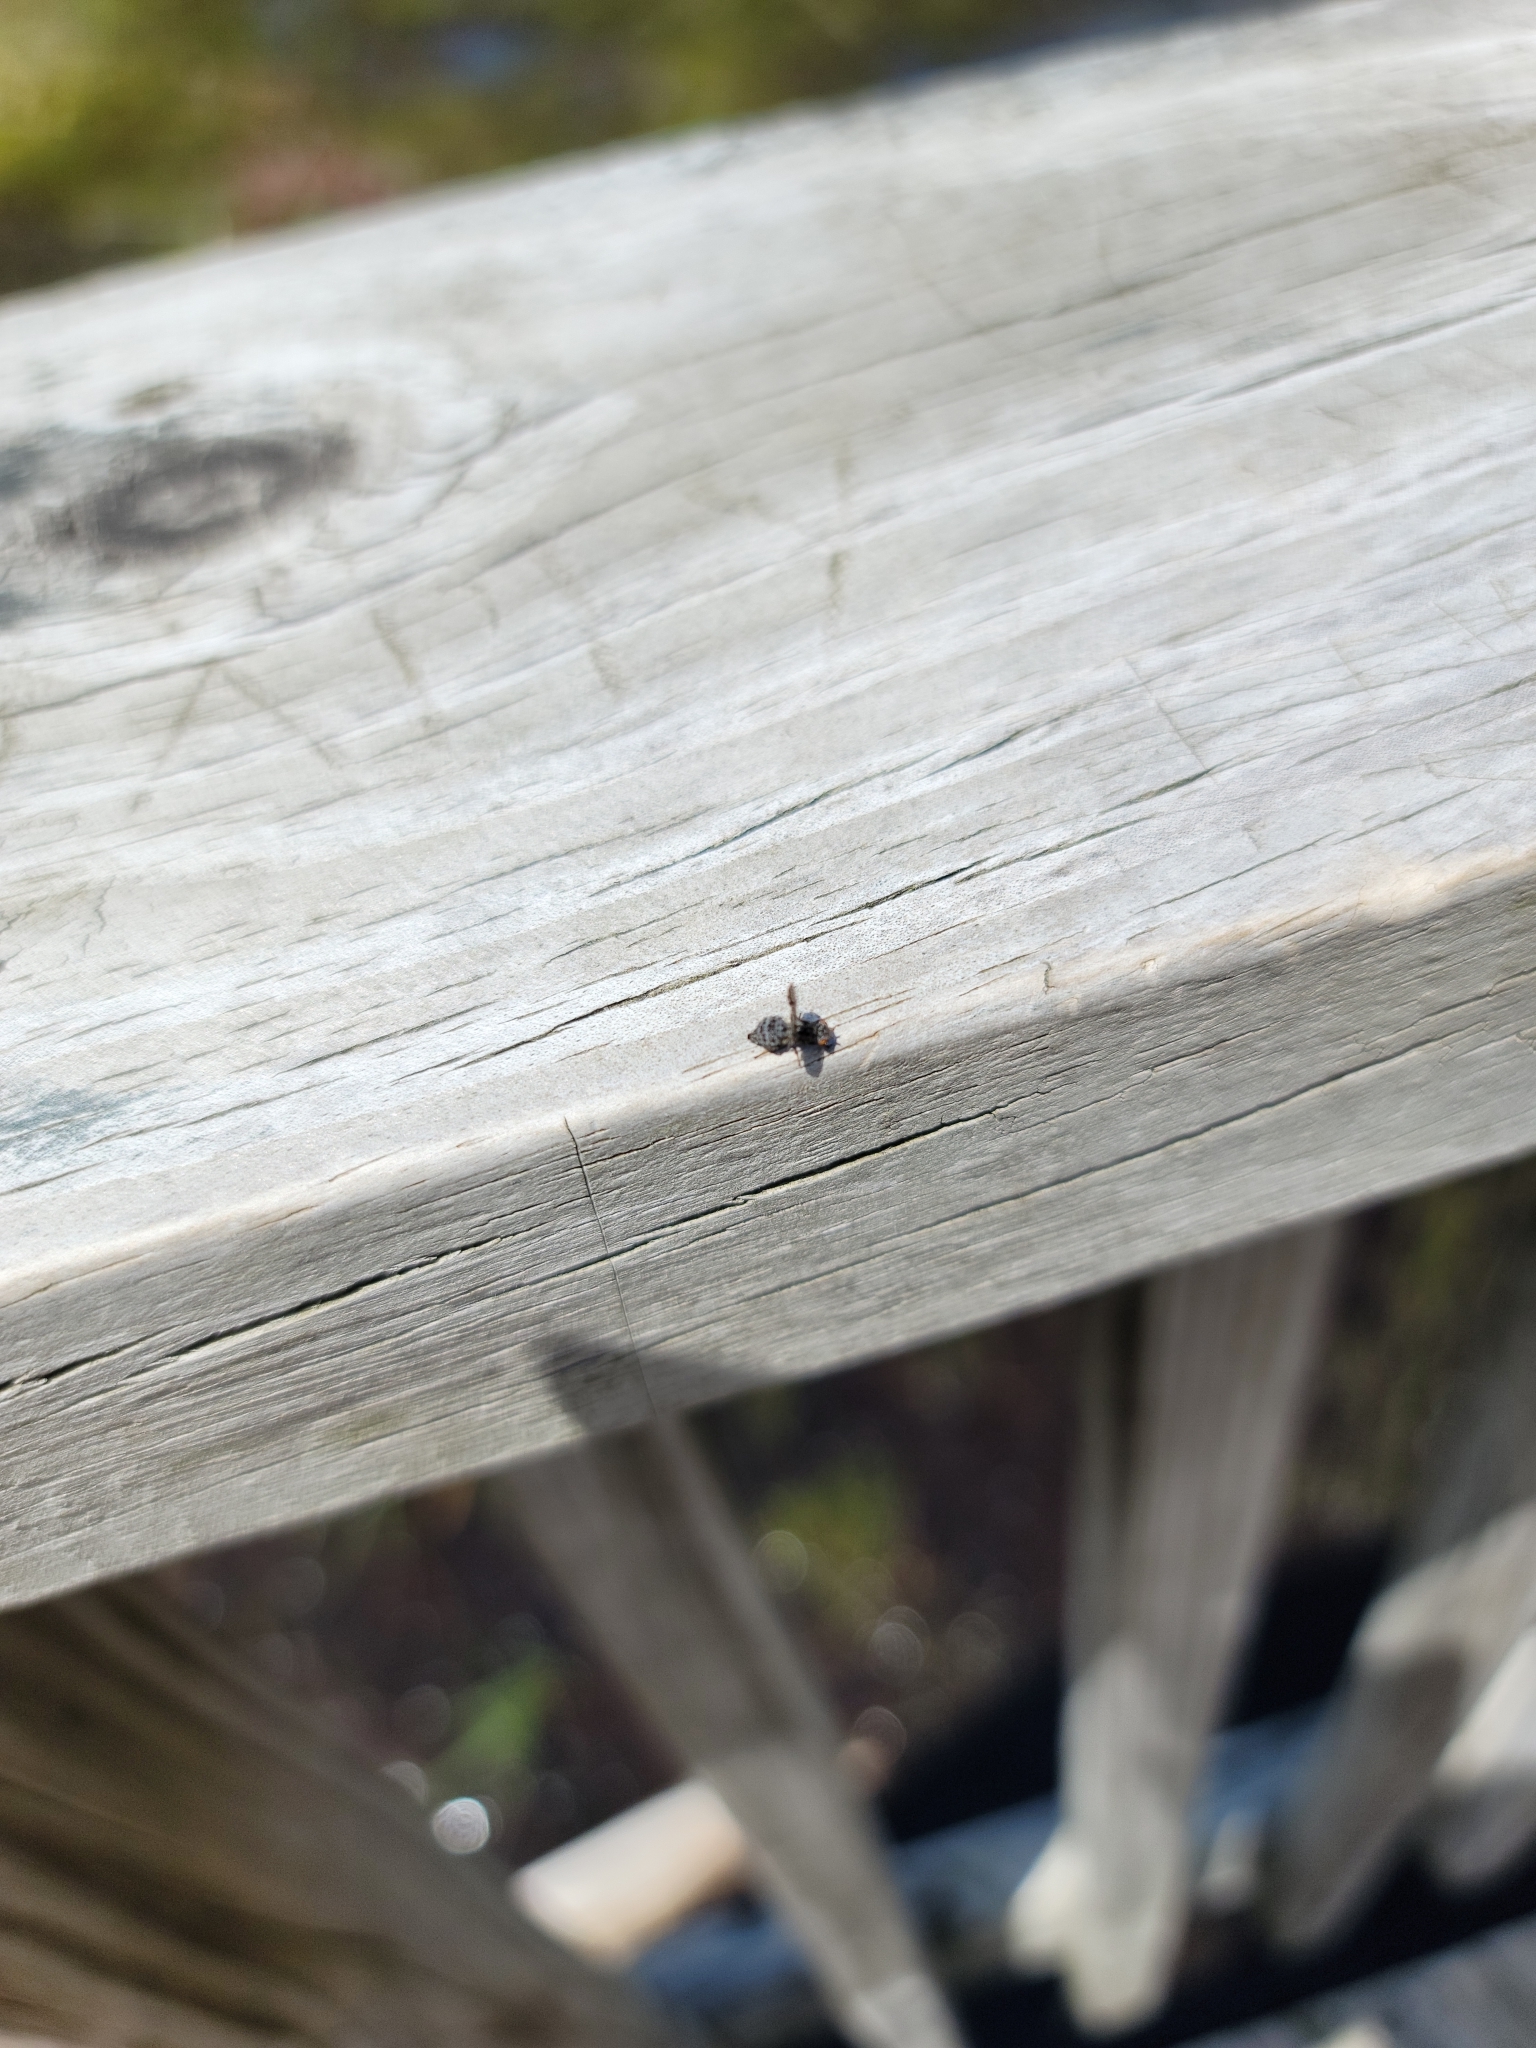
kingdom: Animalia
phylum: Arthropoda
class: Insecta
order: Diptera
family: Ulidiidae
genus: Callopistromyia
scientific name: Callopistromyia annulipes
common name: Peacock fly
